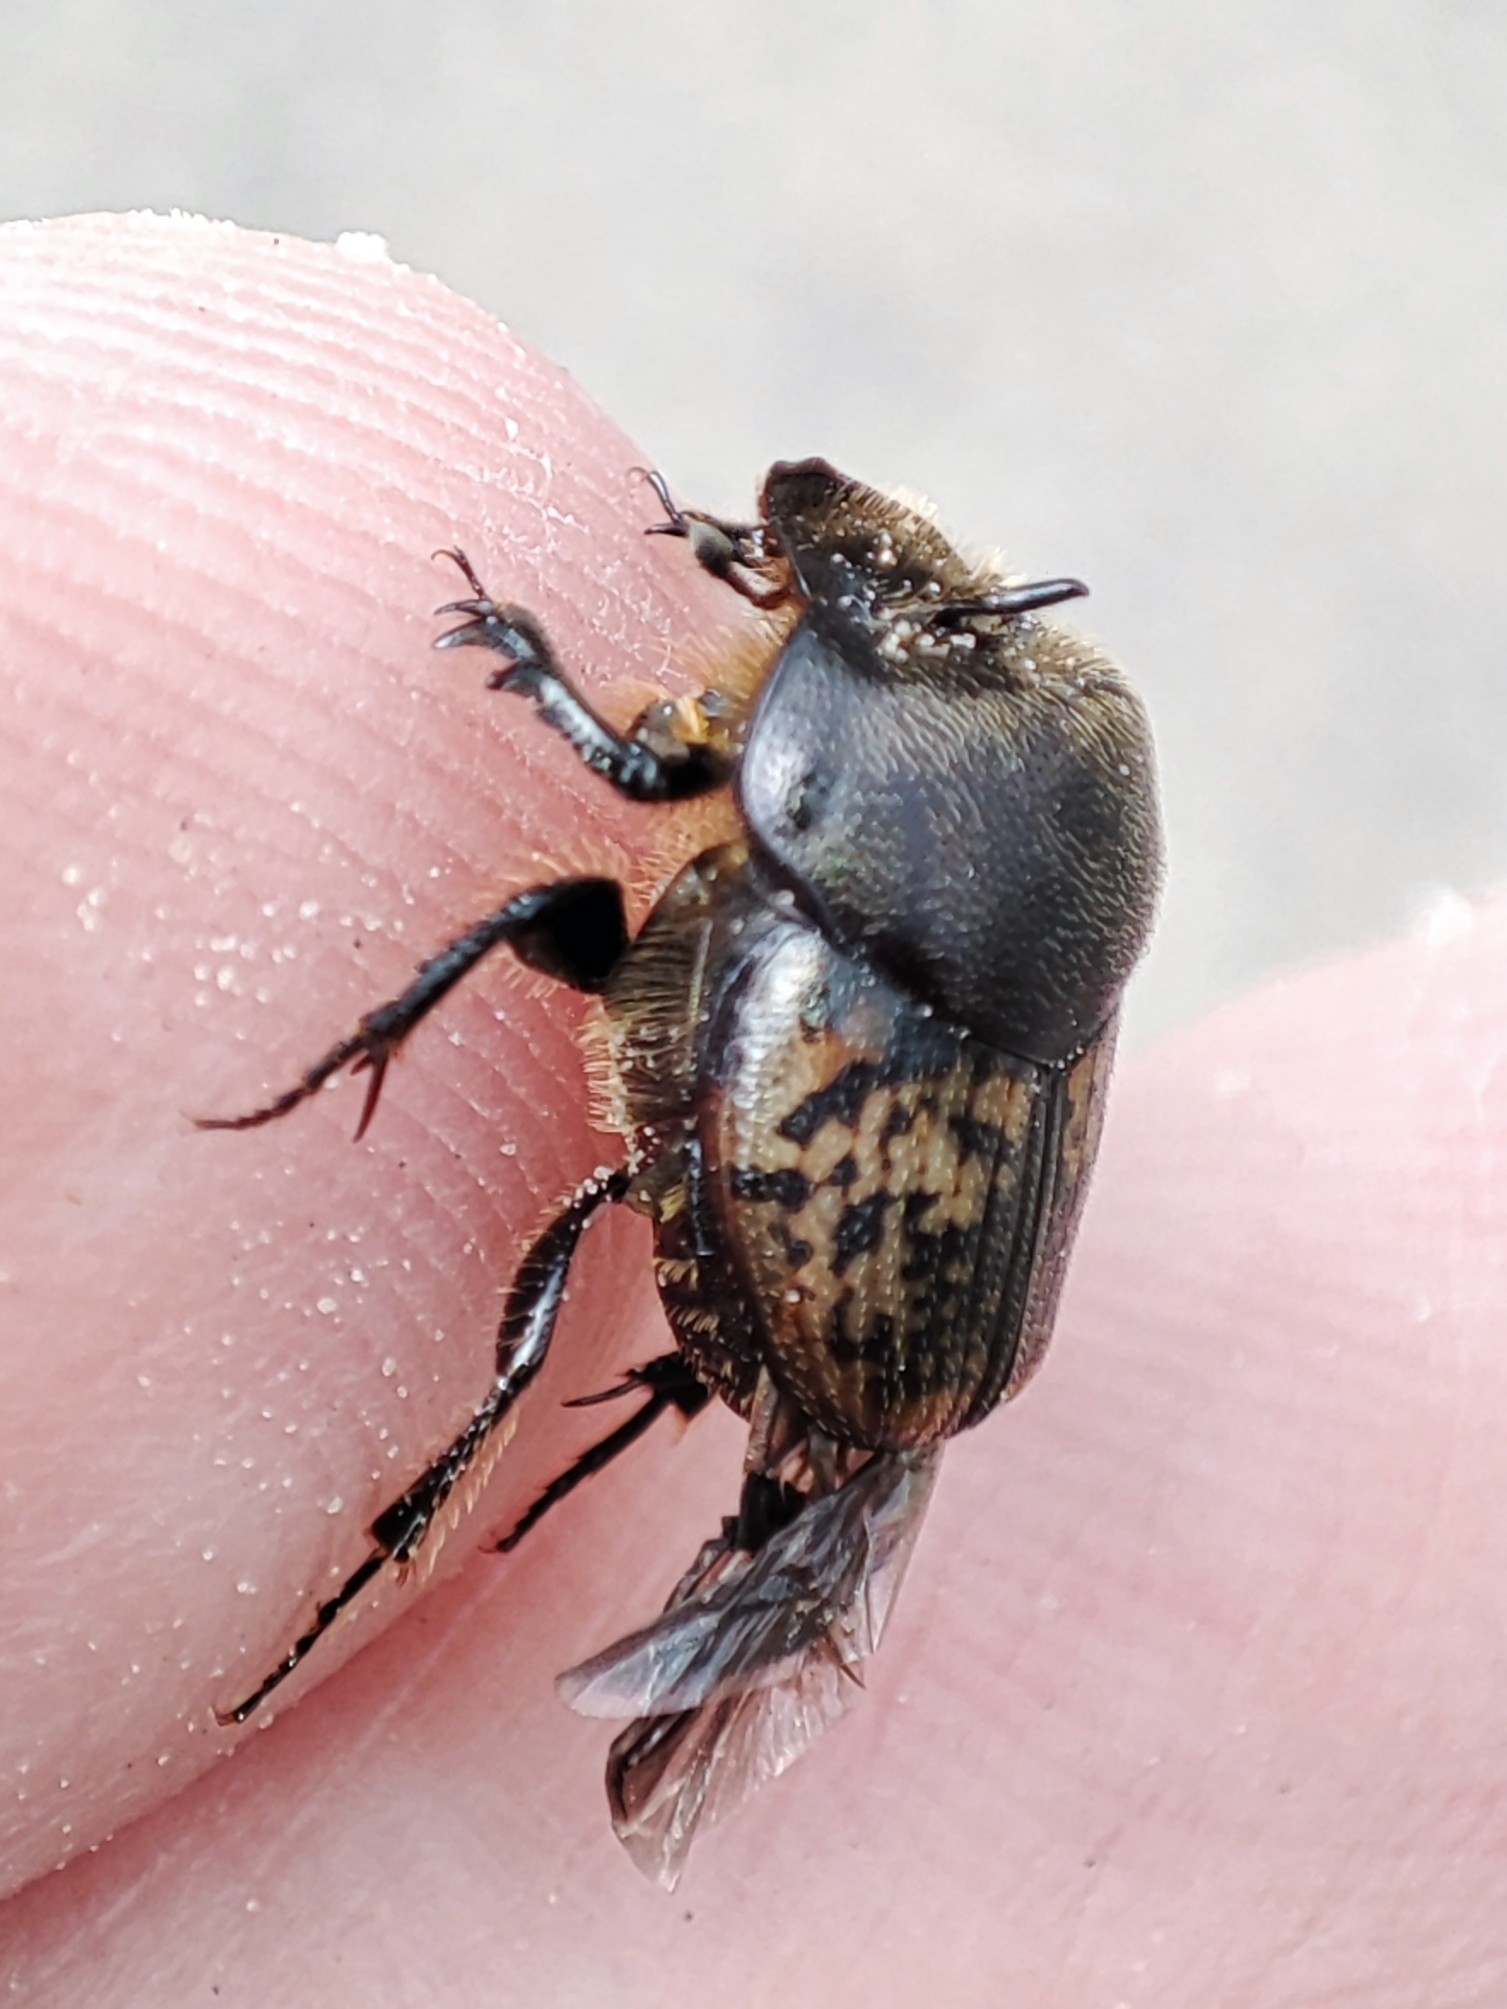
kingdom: Animalia
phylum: Arthropoda
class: Insecta
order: Coleoptera
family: Scarabaeidae
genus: Onthophagus
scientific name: Onthophagus nuchicornis
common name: Mottled dung beetle
